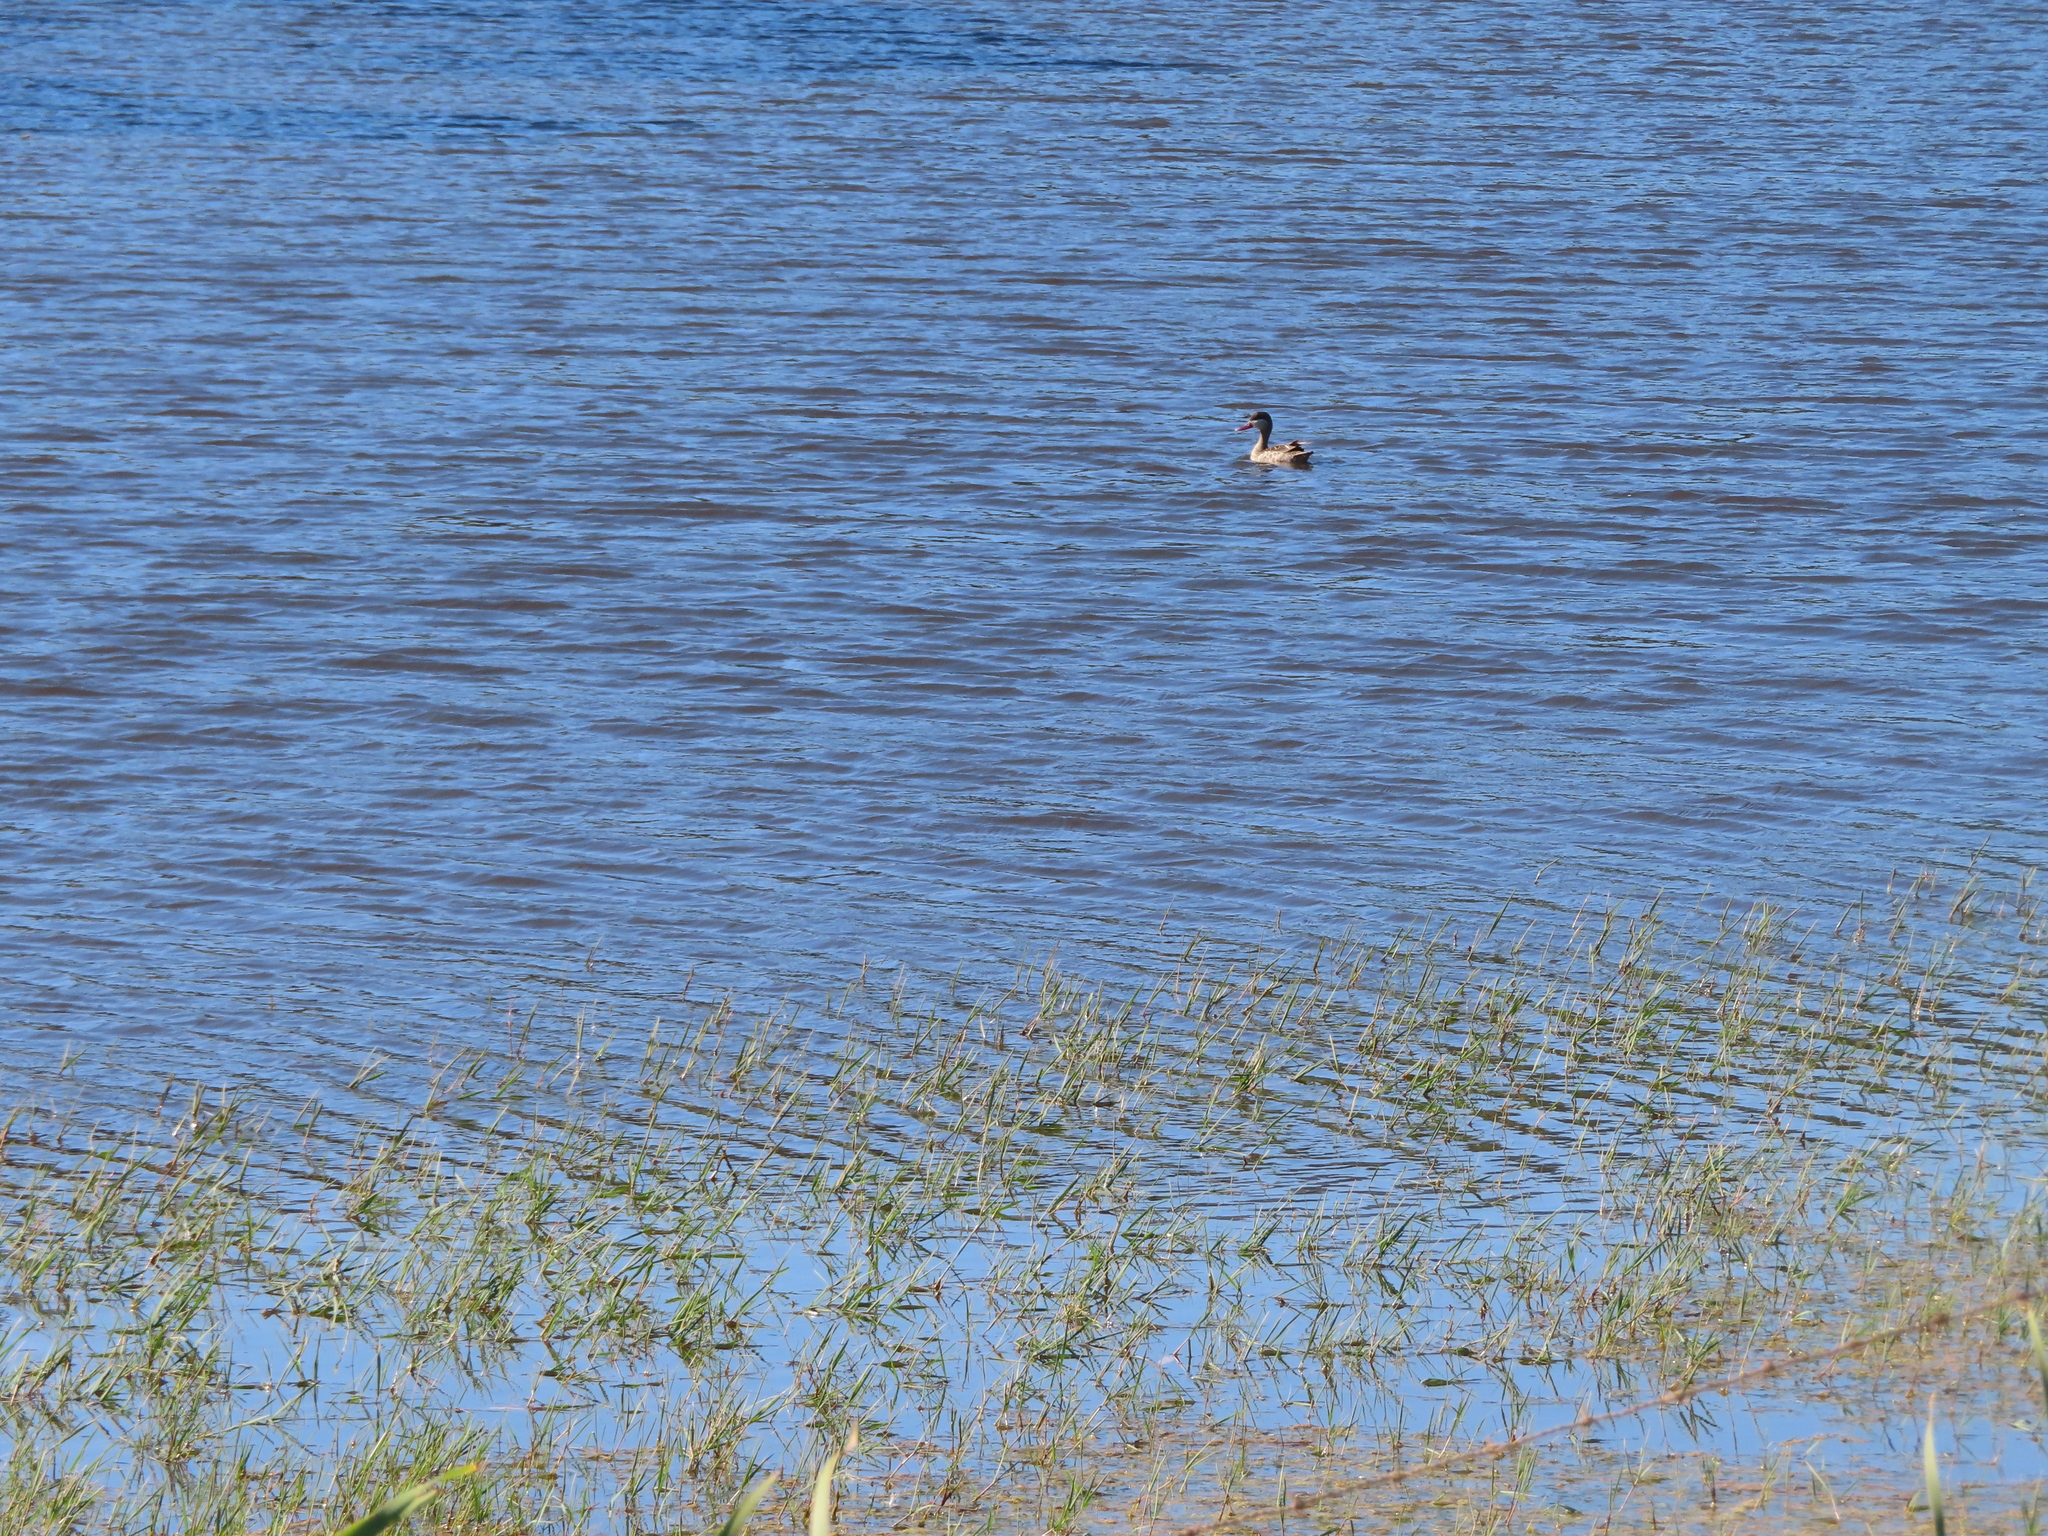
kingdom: Animalia
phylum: Chordata
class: Aves
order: Anseriformes
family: Anatidae
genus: Anas
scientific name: Anas erythrorhyncha
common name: Red-billed teal
